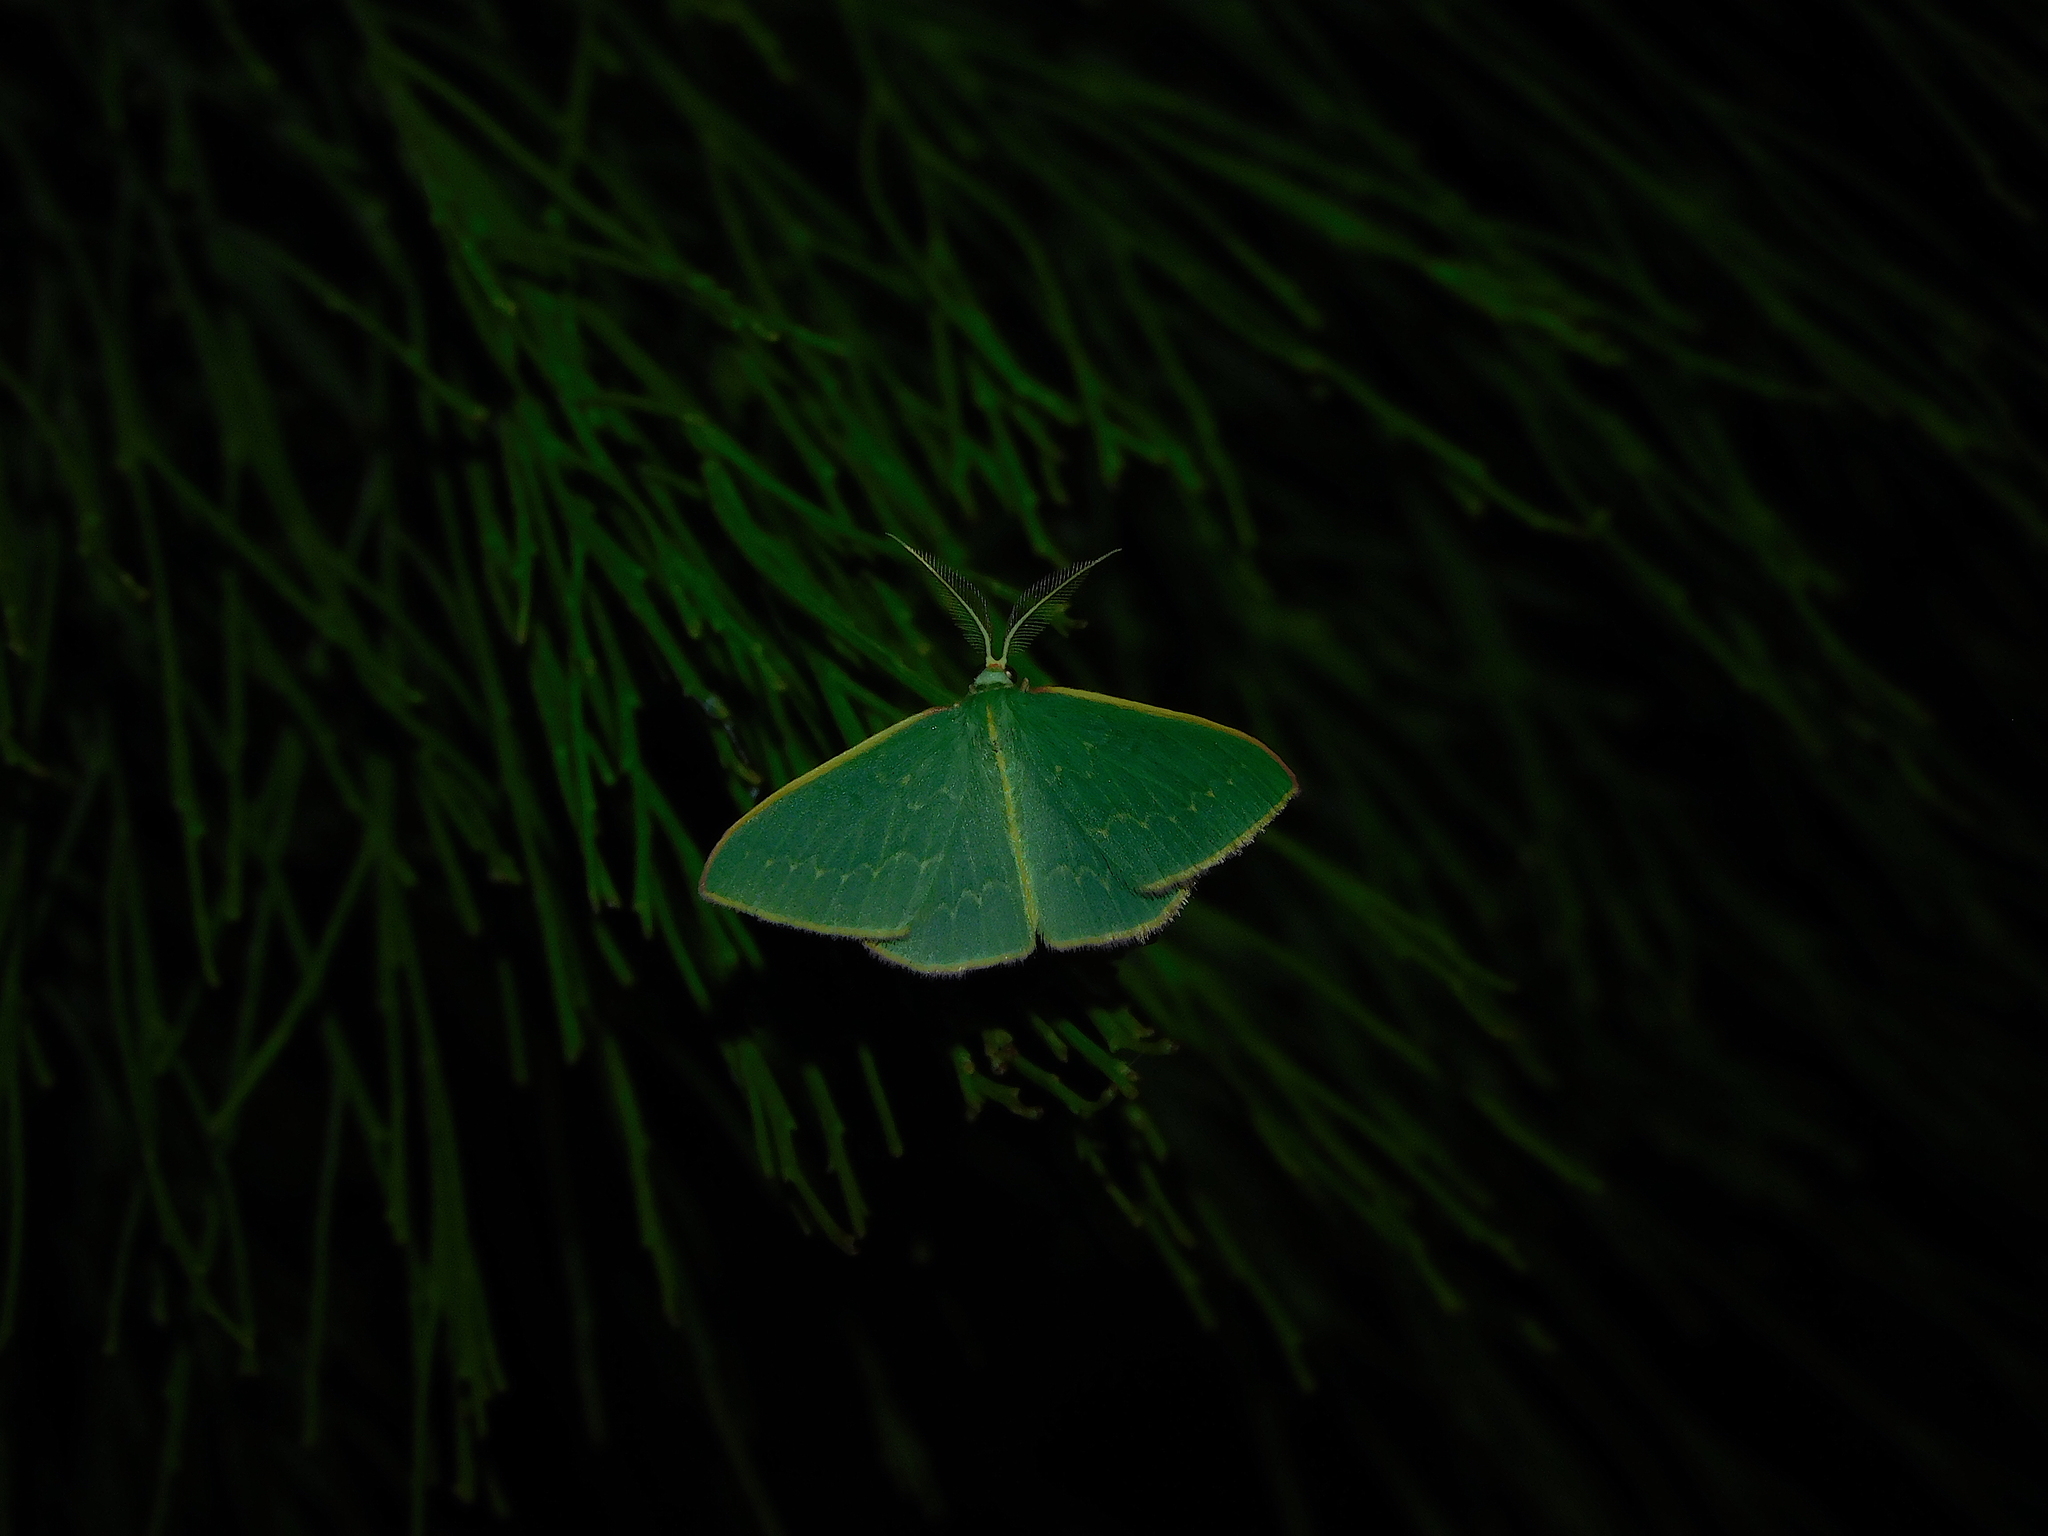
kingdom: Animalia
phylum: Arthropoda
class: Insecta
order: Lepidoptera
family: Geometridae
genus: Chlorocoma
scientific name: Chlorocoma melocrossa
